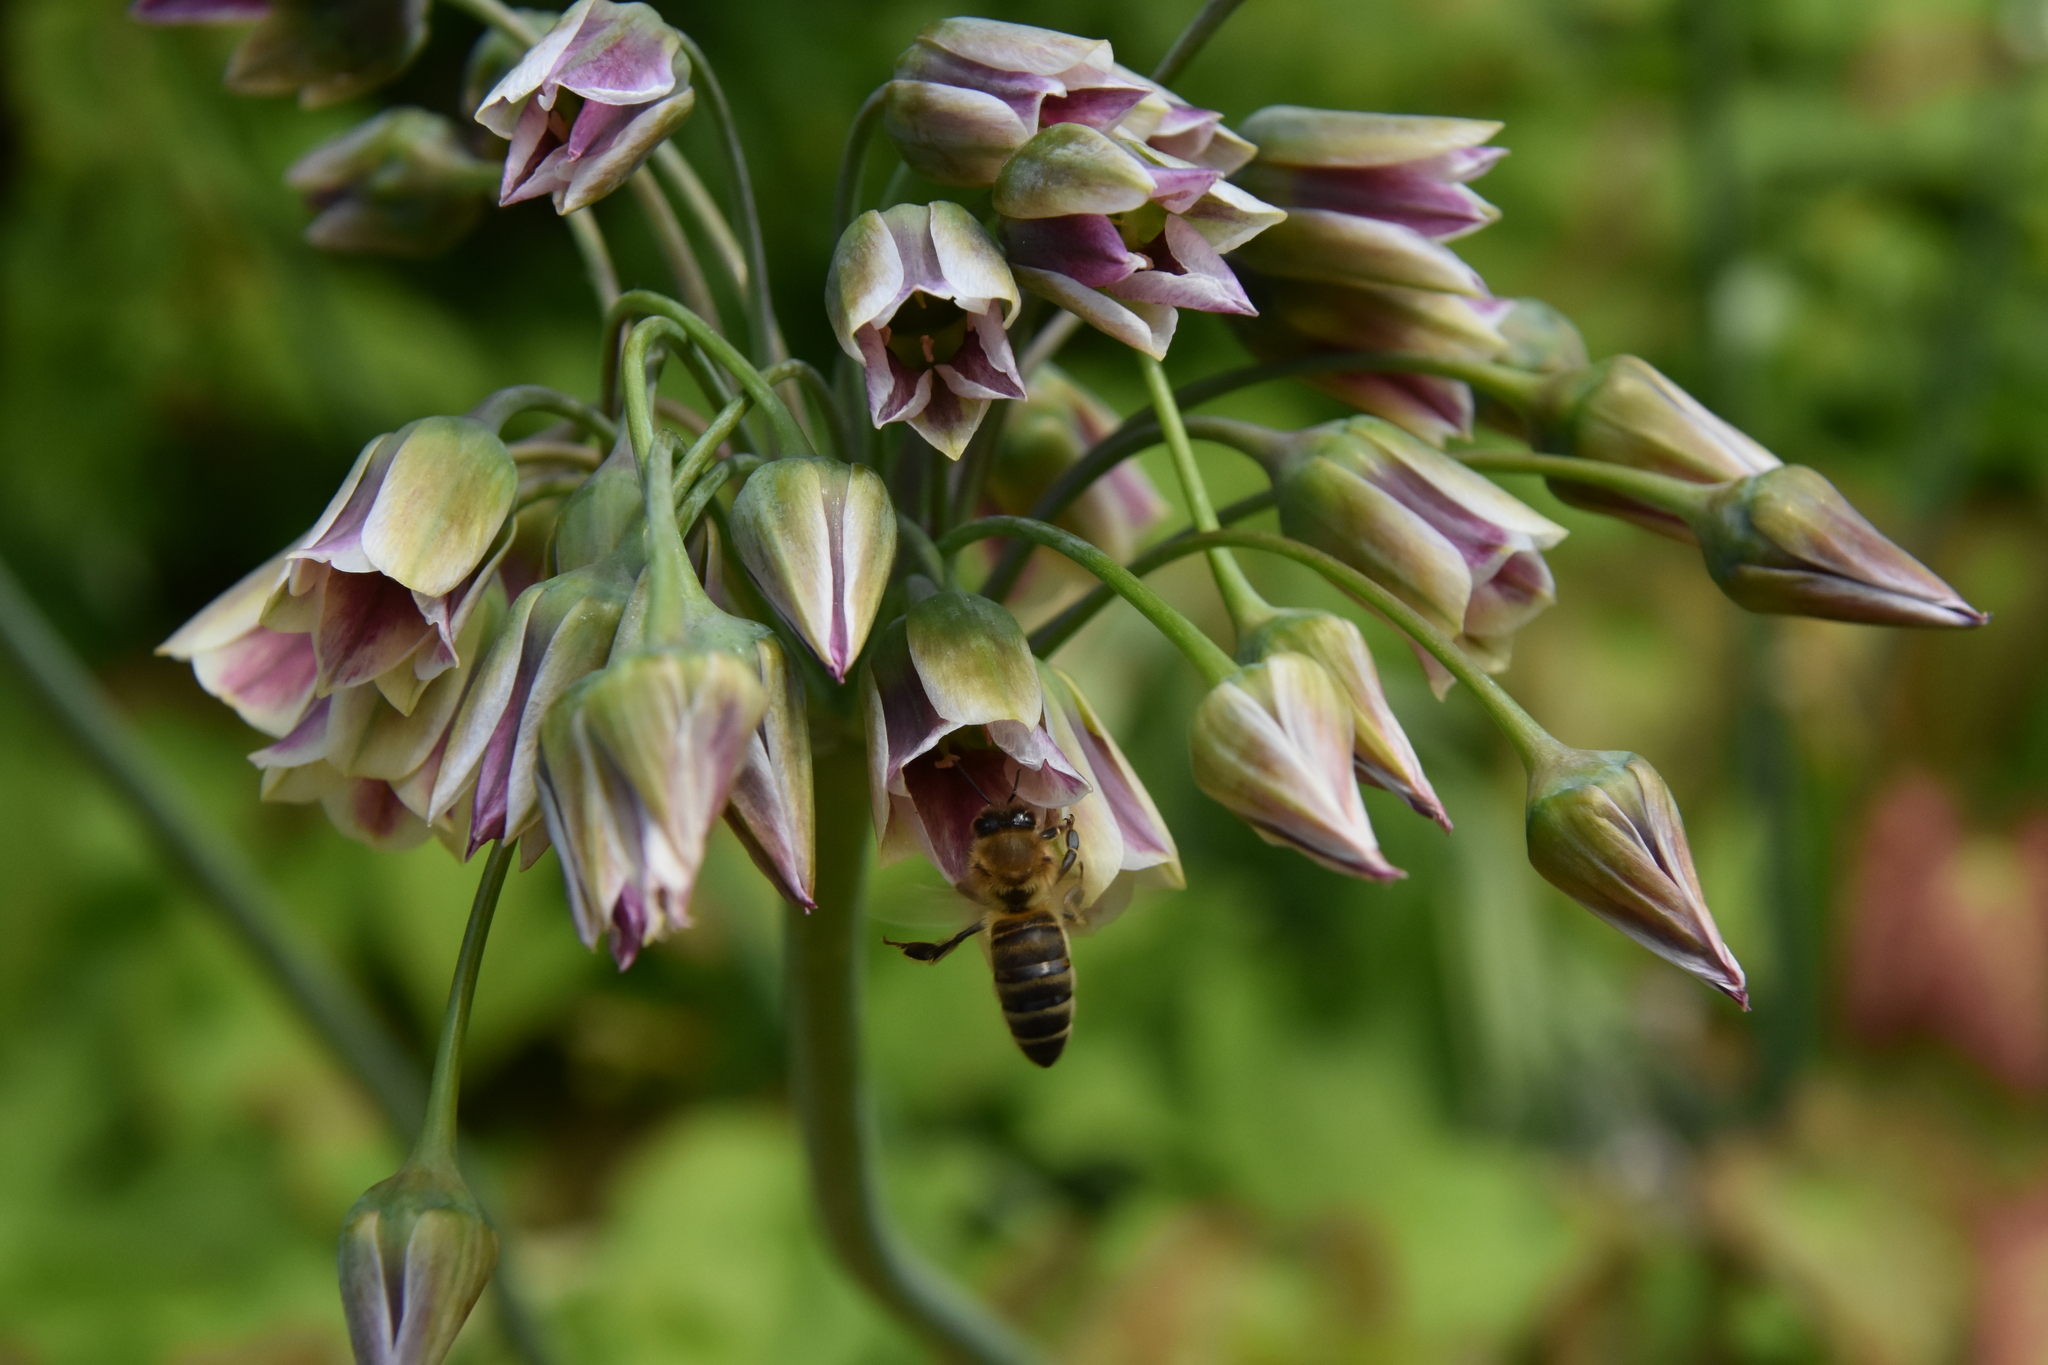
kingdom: Animalia
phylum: Arthropoda
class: Insecta
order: Hymenoptera
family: Apidae
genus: Apis
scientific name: Apis mellifera
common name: Honey bee
